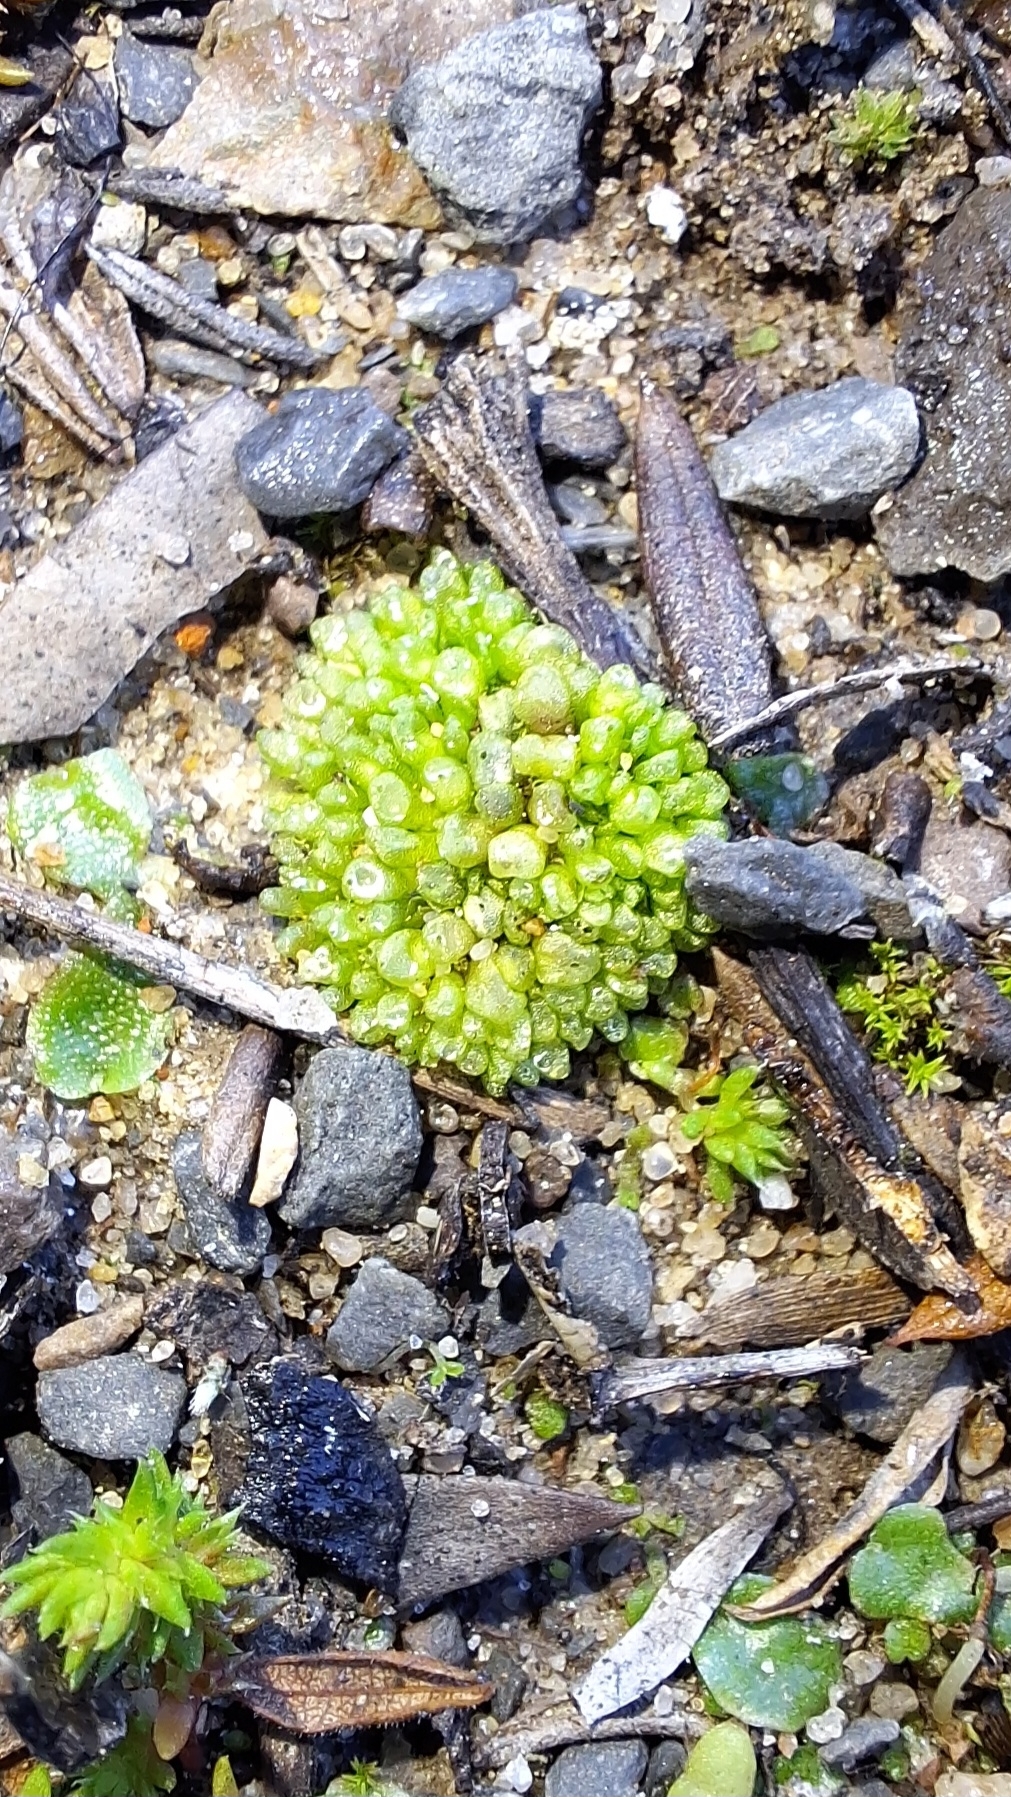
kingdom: Plantae
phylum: Marchantiophyta
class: Marchantiopsida
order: Sphaerocarpales
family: Sphaerocarpaceae
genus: Sphaerocarpos
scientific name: Sphaerocarpos texanus
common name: Texas balloonwort
